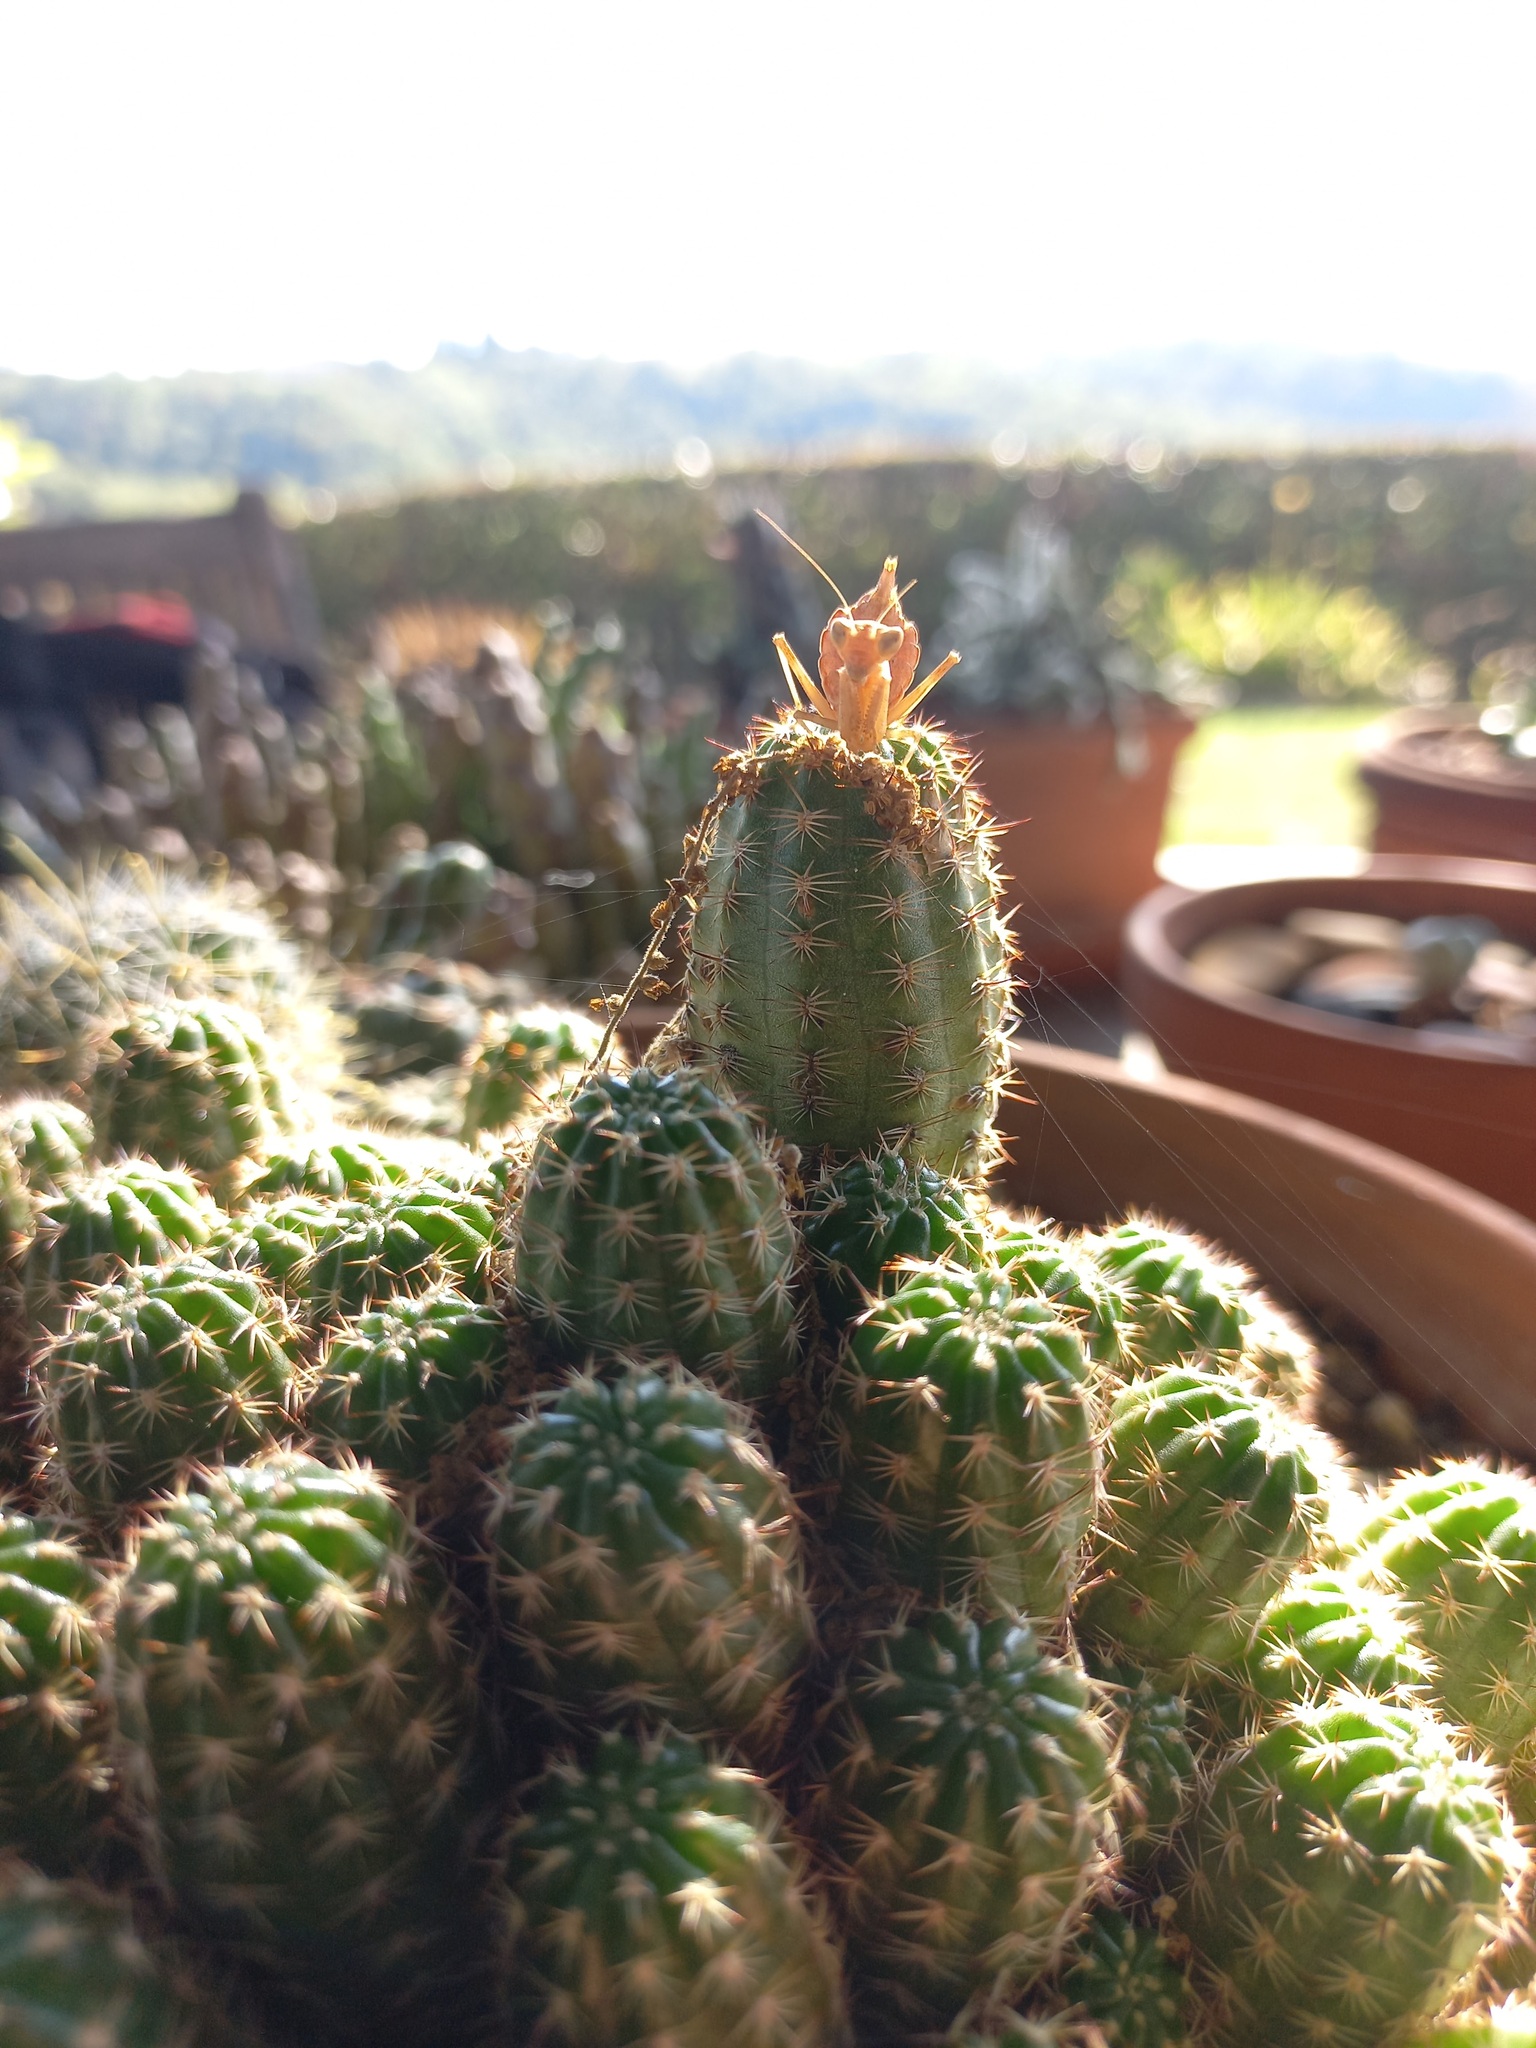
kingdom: Animalia
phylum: Arthropoda
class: Insecta
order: Mantodea
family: Amelidae
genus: Ameles
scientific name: Ameles spallanzania
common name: European dwarf mantis
